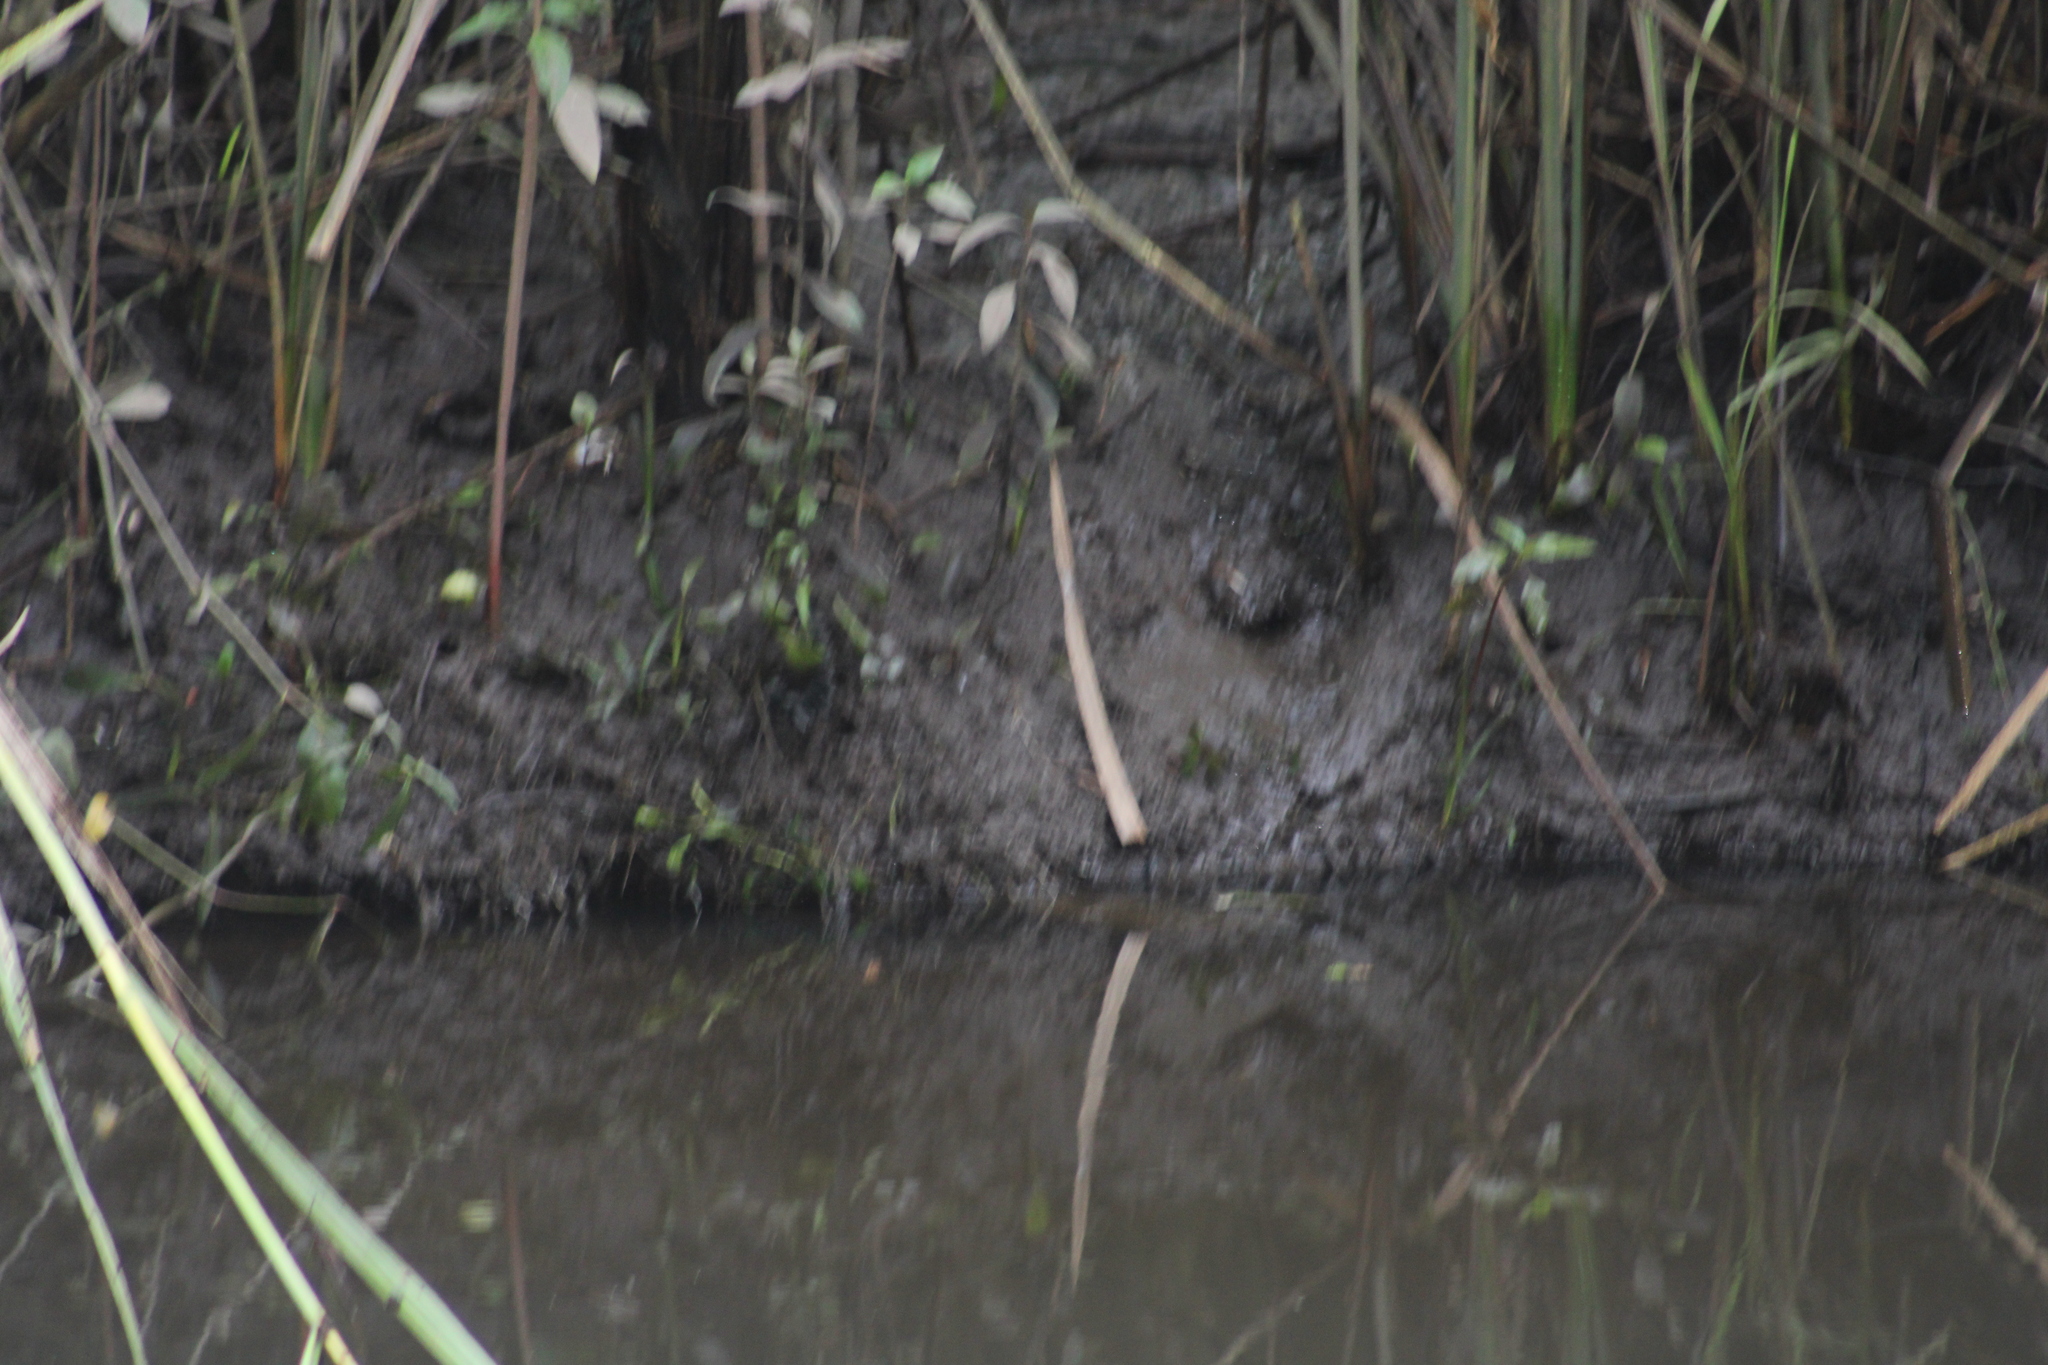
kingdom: Animalia
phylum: Arthropoda
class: Malacostraca
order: Decapoda
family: Ocypodidae
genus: Minuca
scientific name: Minuca minax
